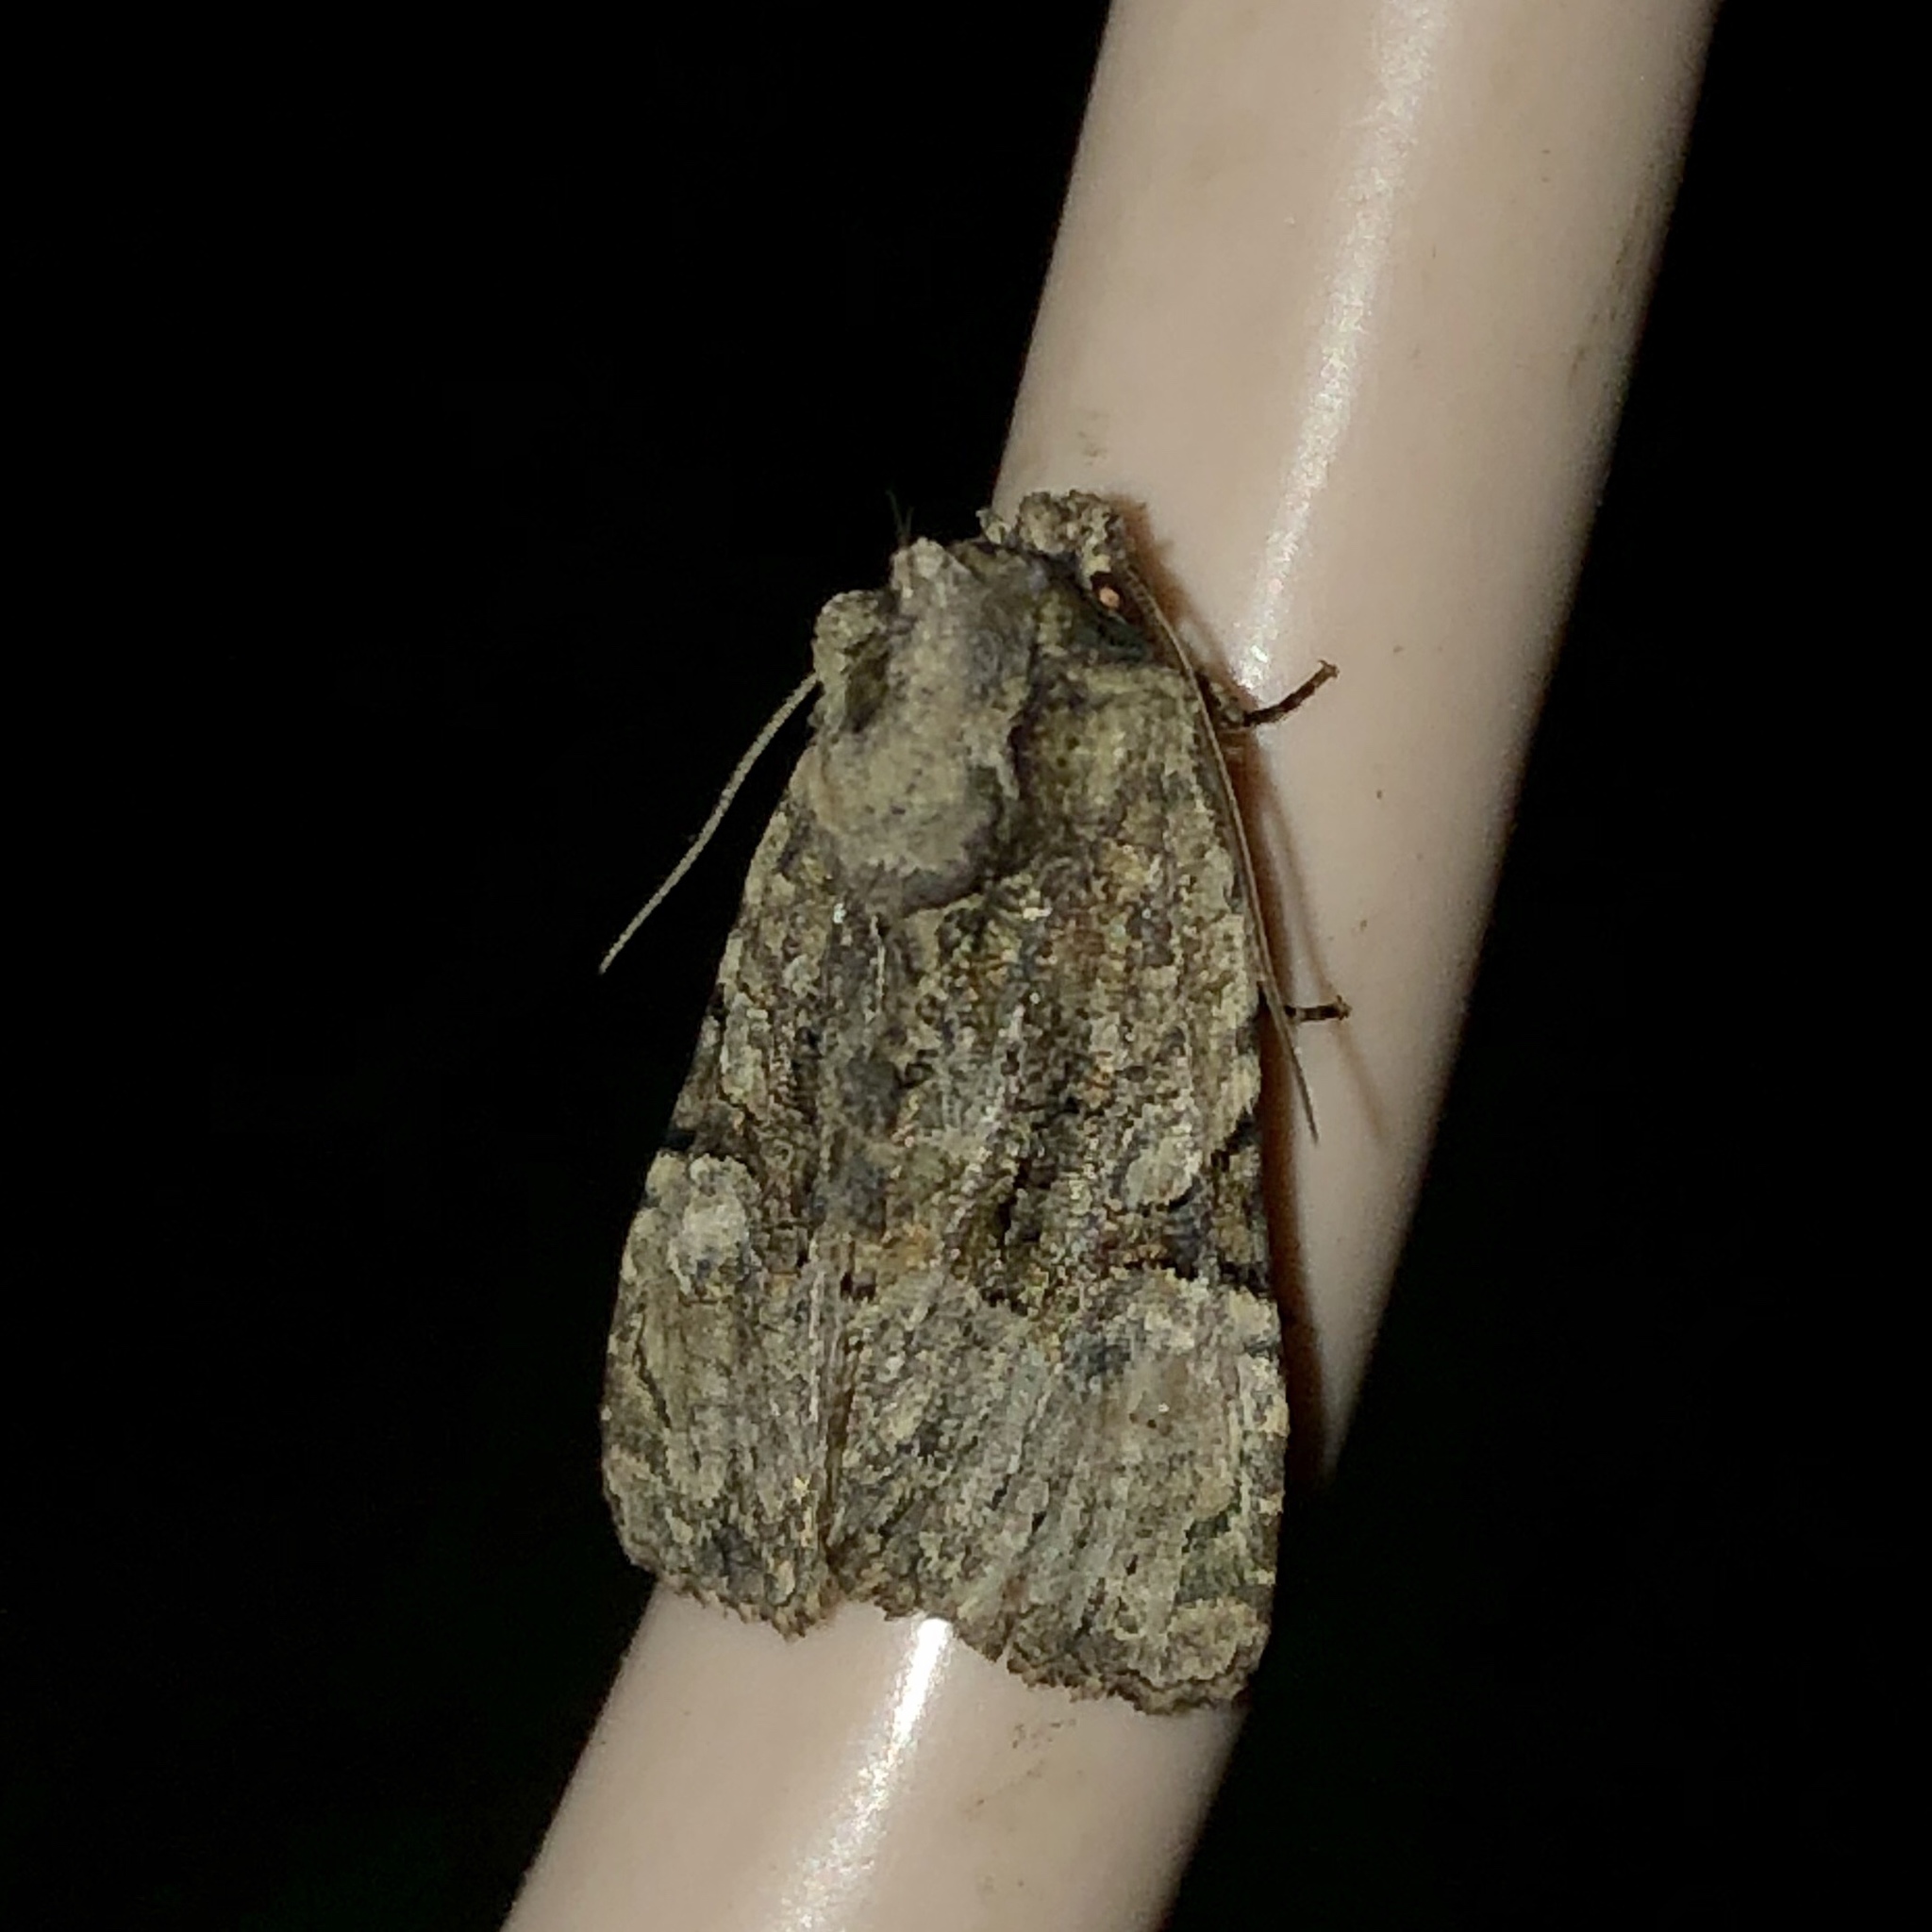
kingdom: Animalia
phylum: Arthropoda
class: Insecta
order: Lepidoptera
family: Noctuidae
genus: Oligia
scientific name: Oligia modica
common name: Black-banded brocade
